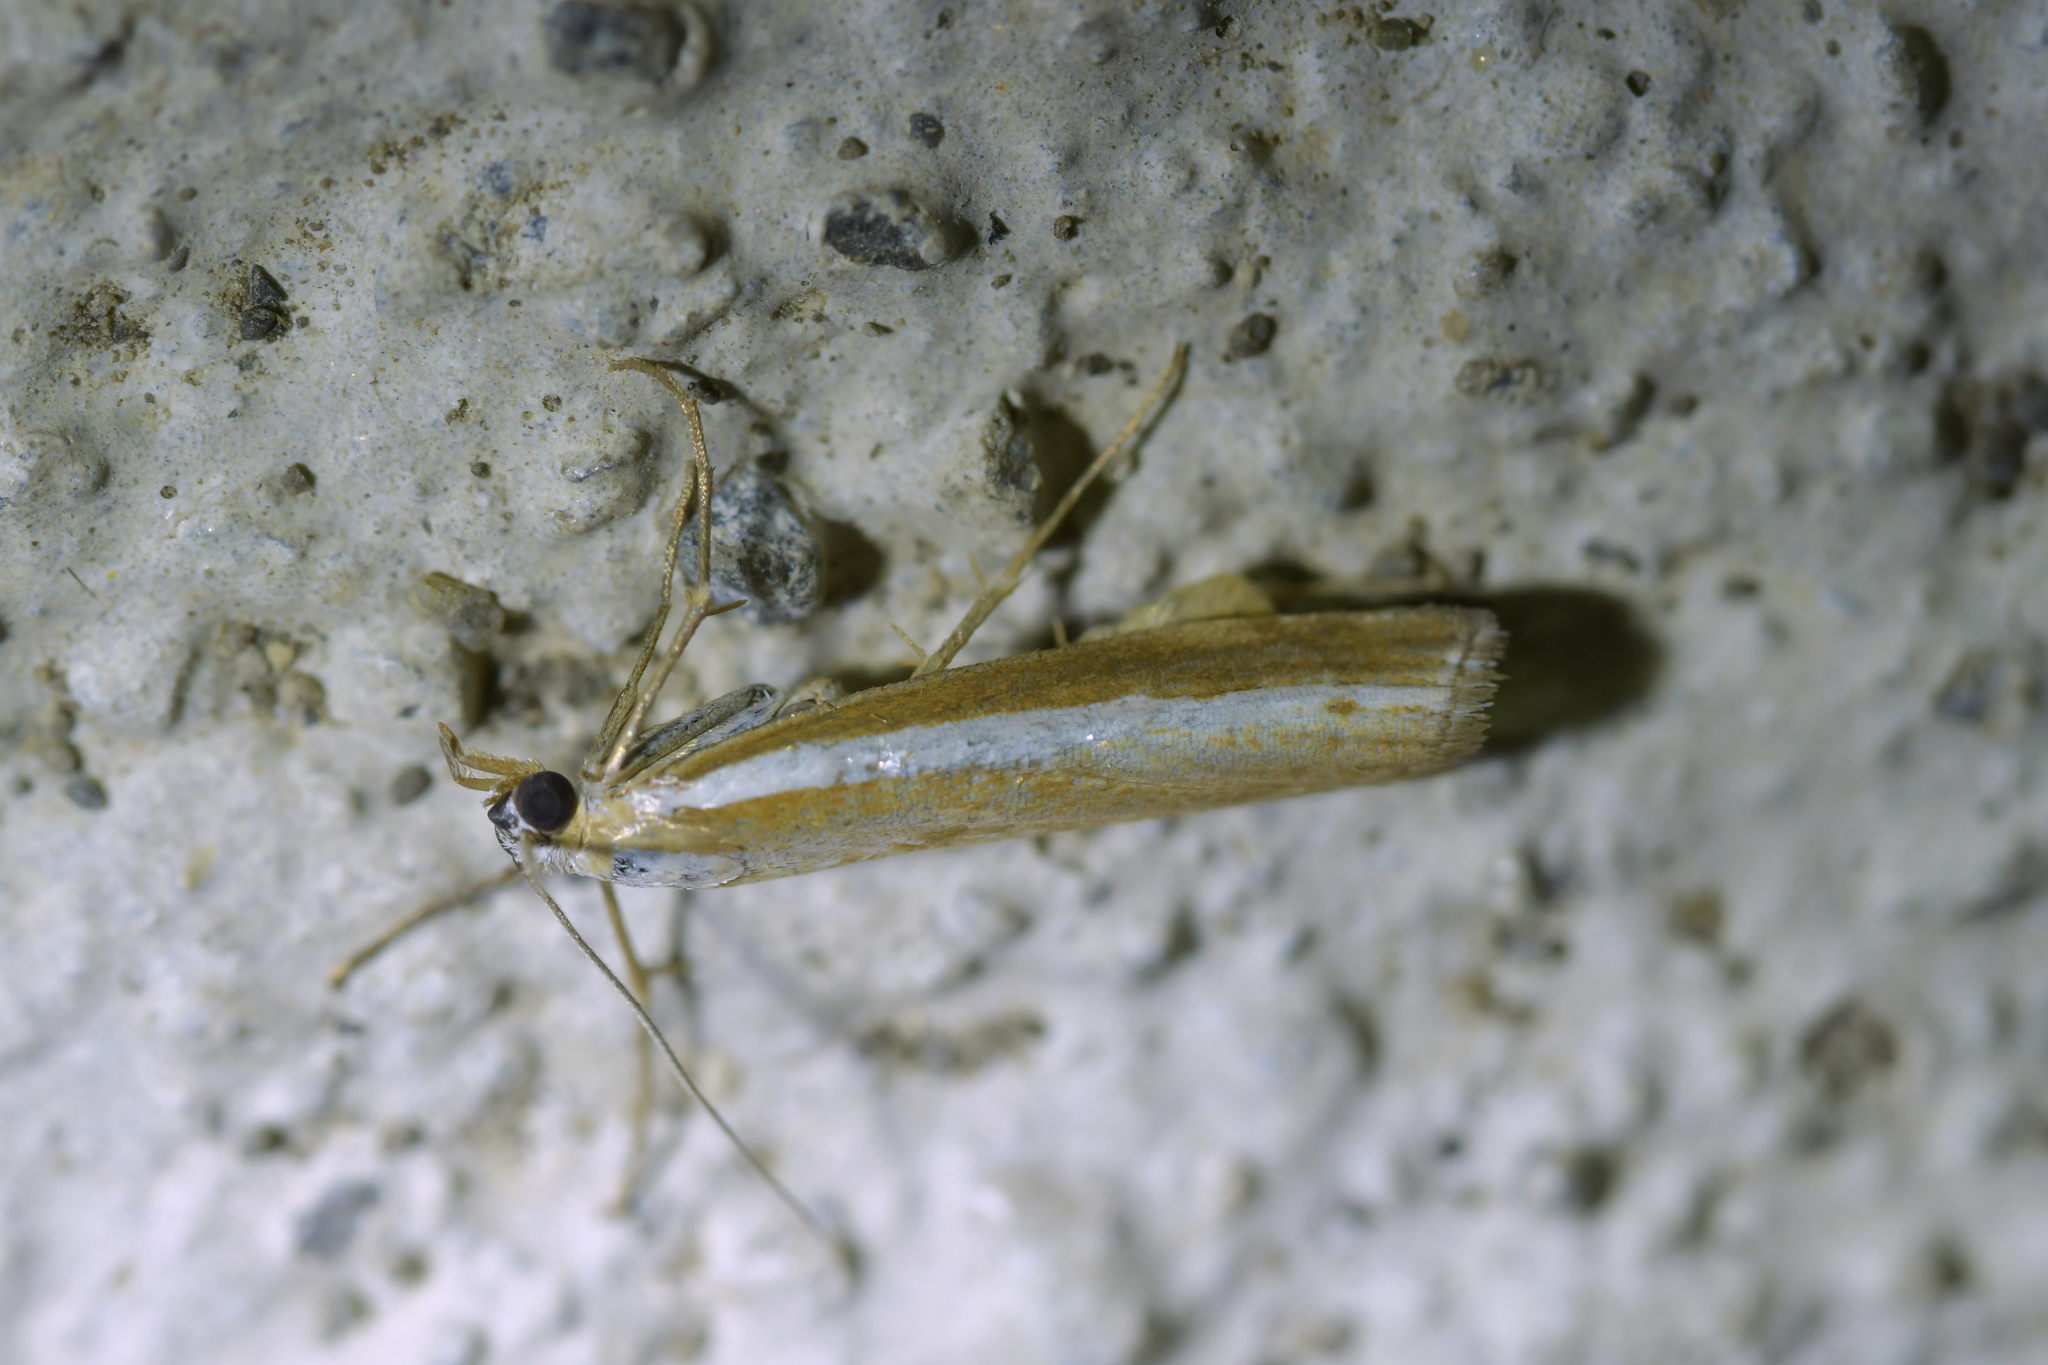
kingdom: Animalia
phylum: Arthropoda
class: Insecta
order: Lepidoptera
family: Crambidae
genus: Orocrambus
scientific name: Orocrambus vittellus
